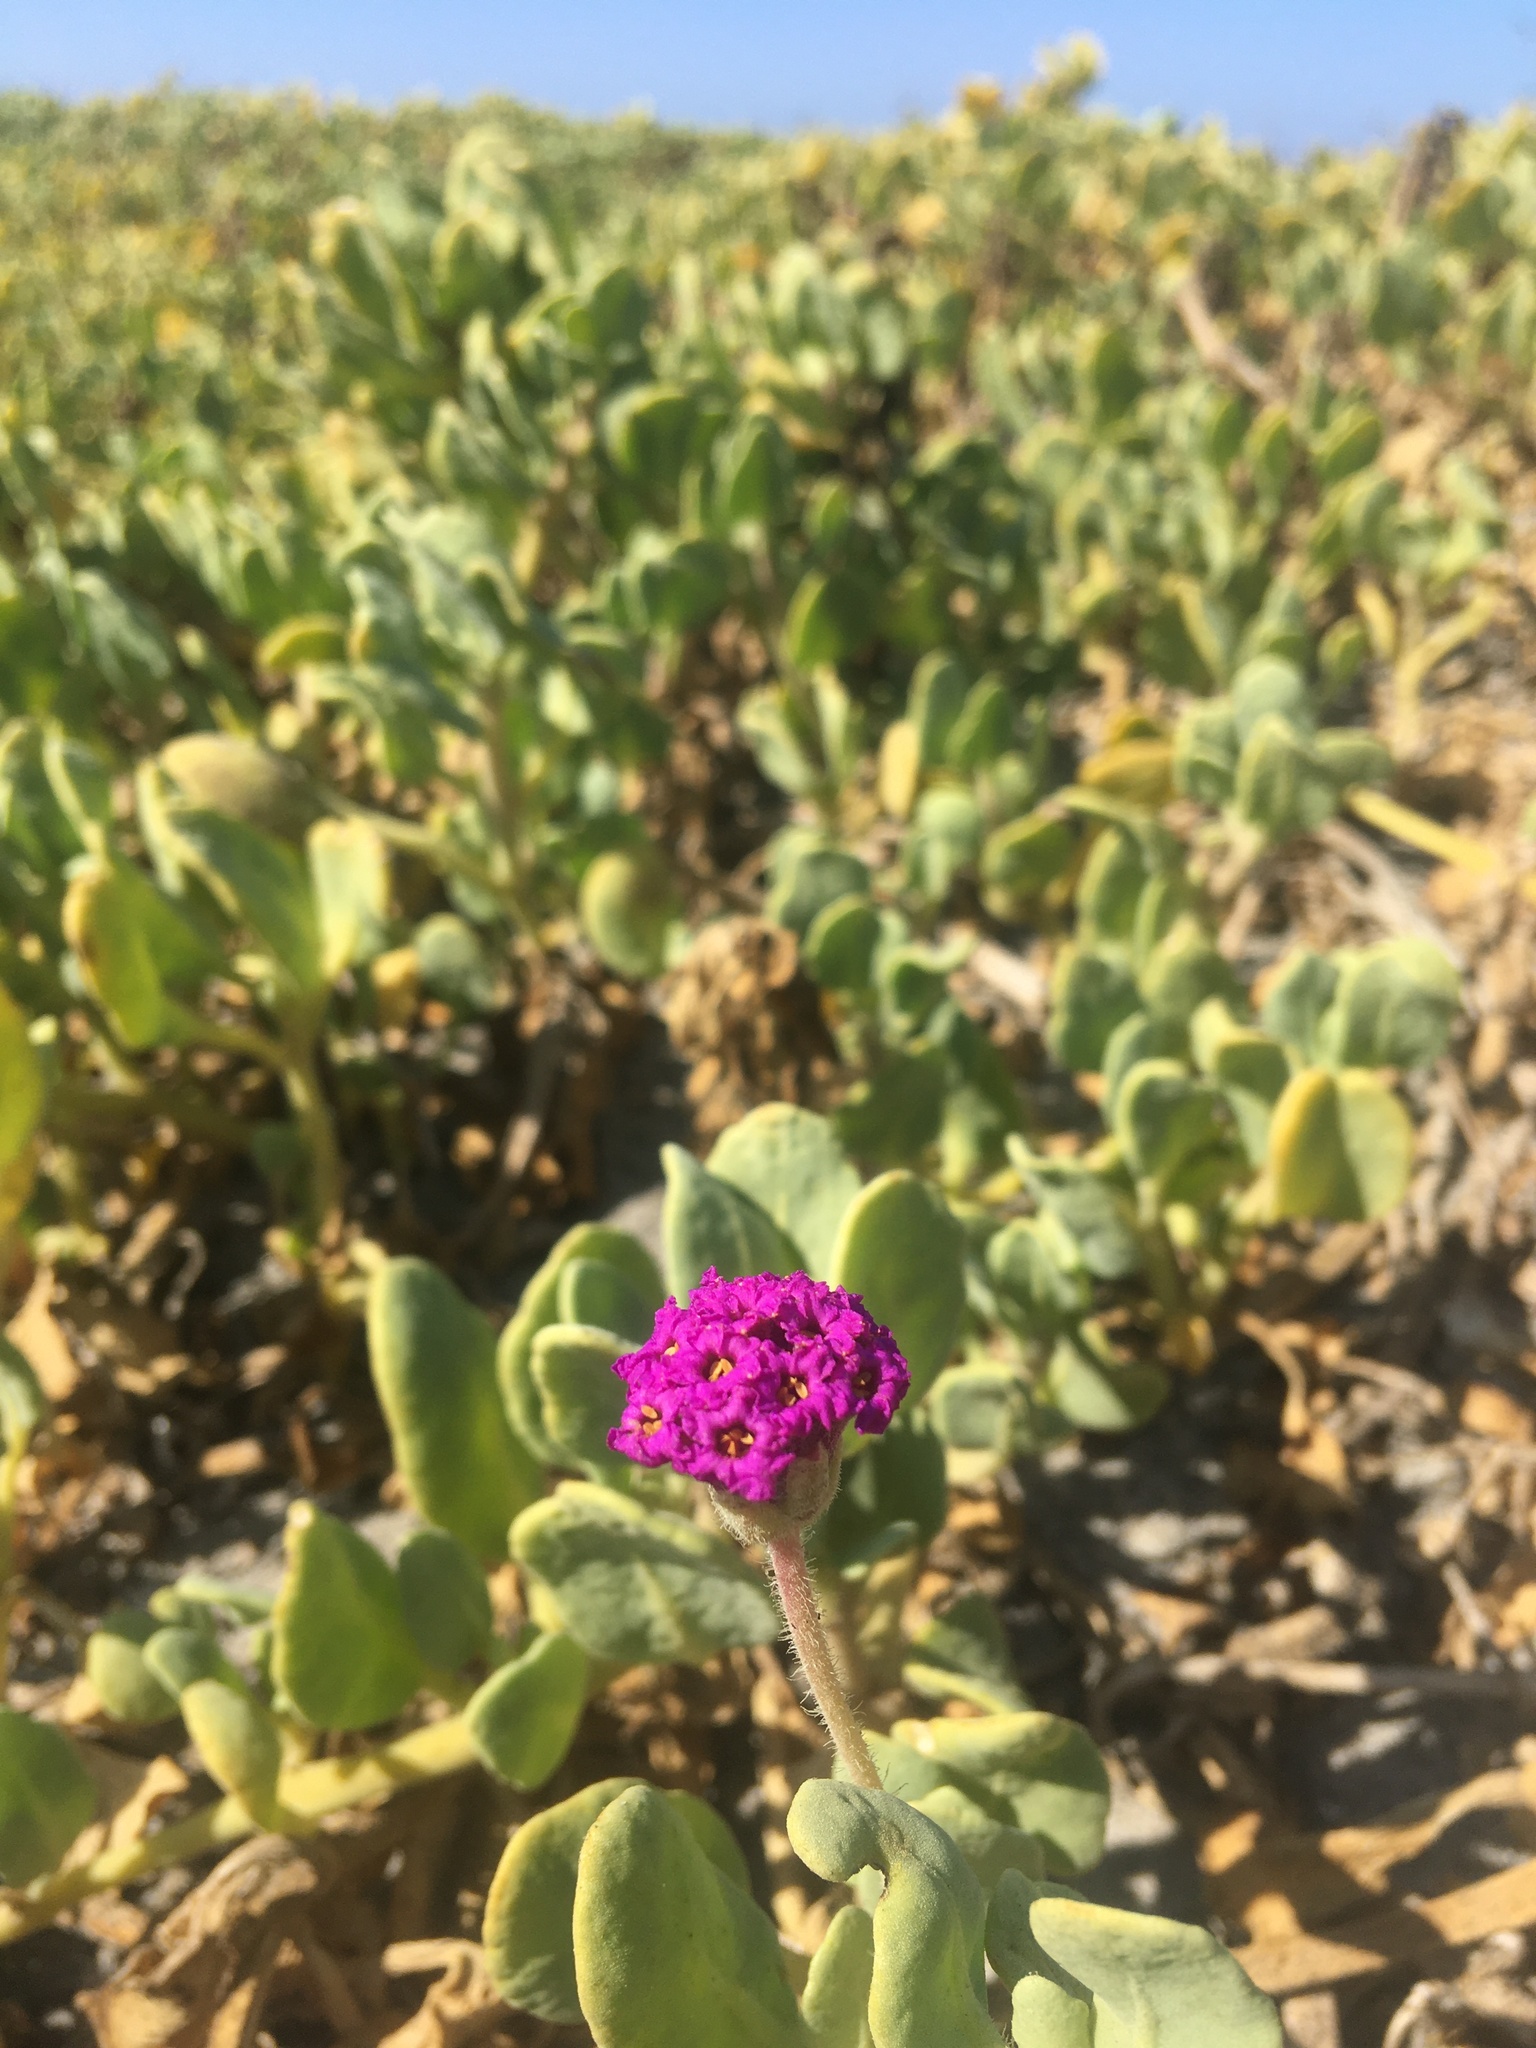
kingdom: Plantae
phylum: Tracheophyta
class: Magnoliopsida
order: Caryophyllales
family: Nyctaginaceae
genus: Abronia
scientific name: Abronia maritima
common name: Red sand-verbena
